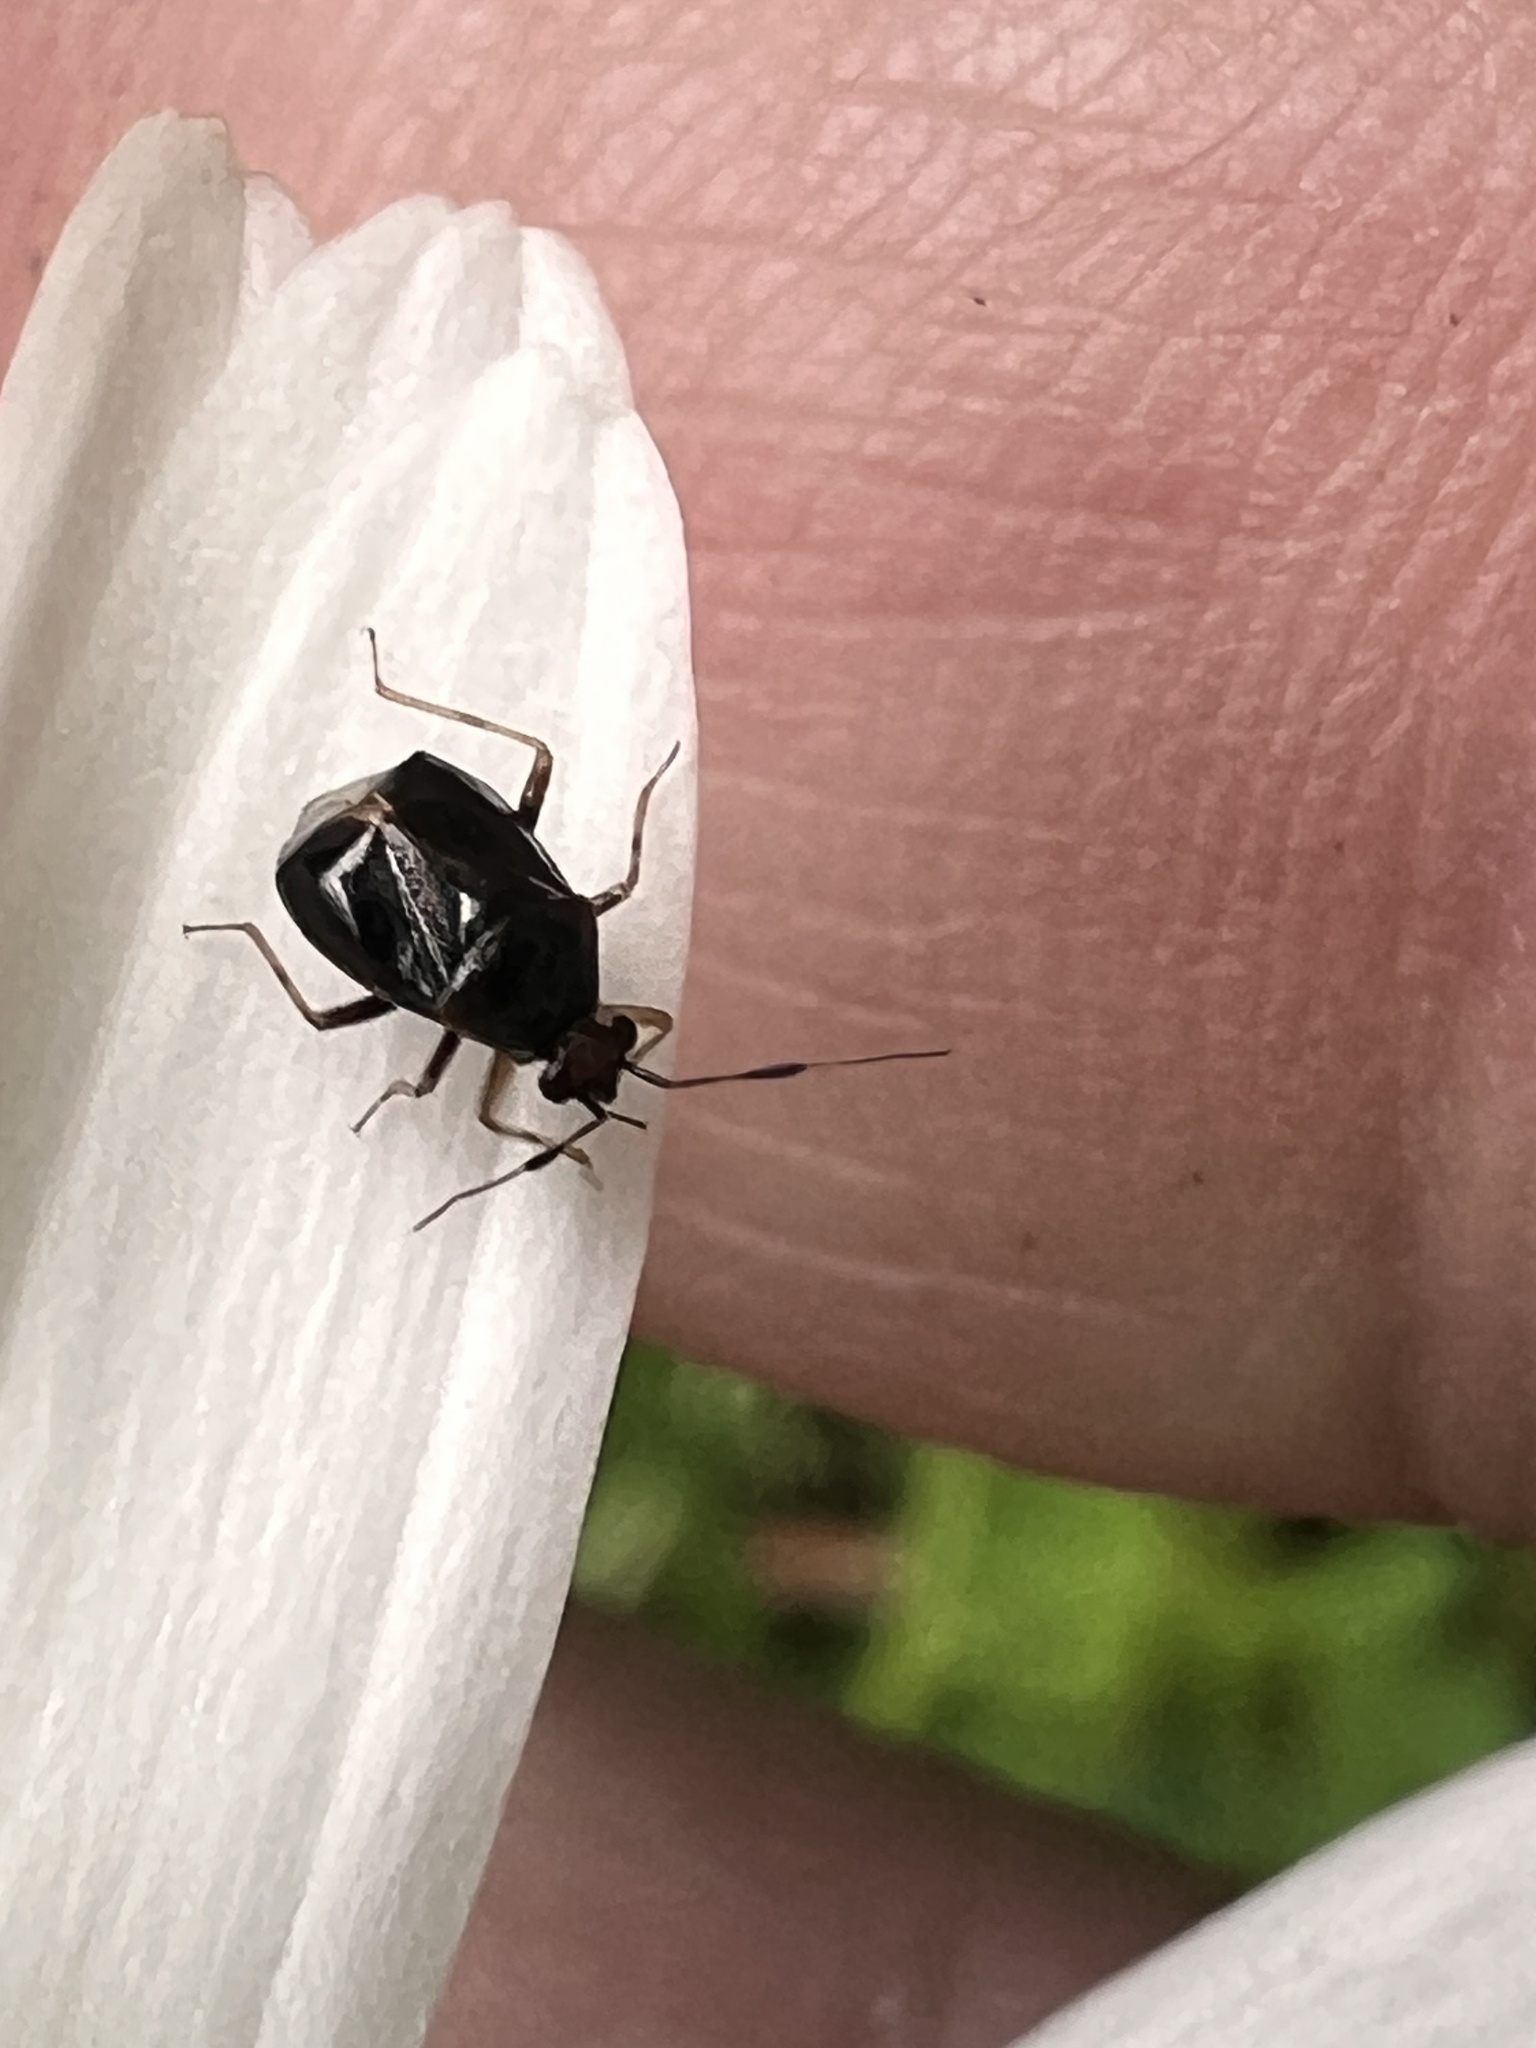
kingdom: Animalia
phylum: Arthropoda
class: Insecta
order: Hemiptera
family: Miridae
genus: Deraeocoris
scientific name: Deraeocoris maoricus
